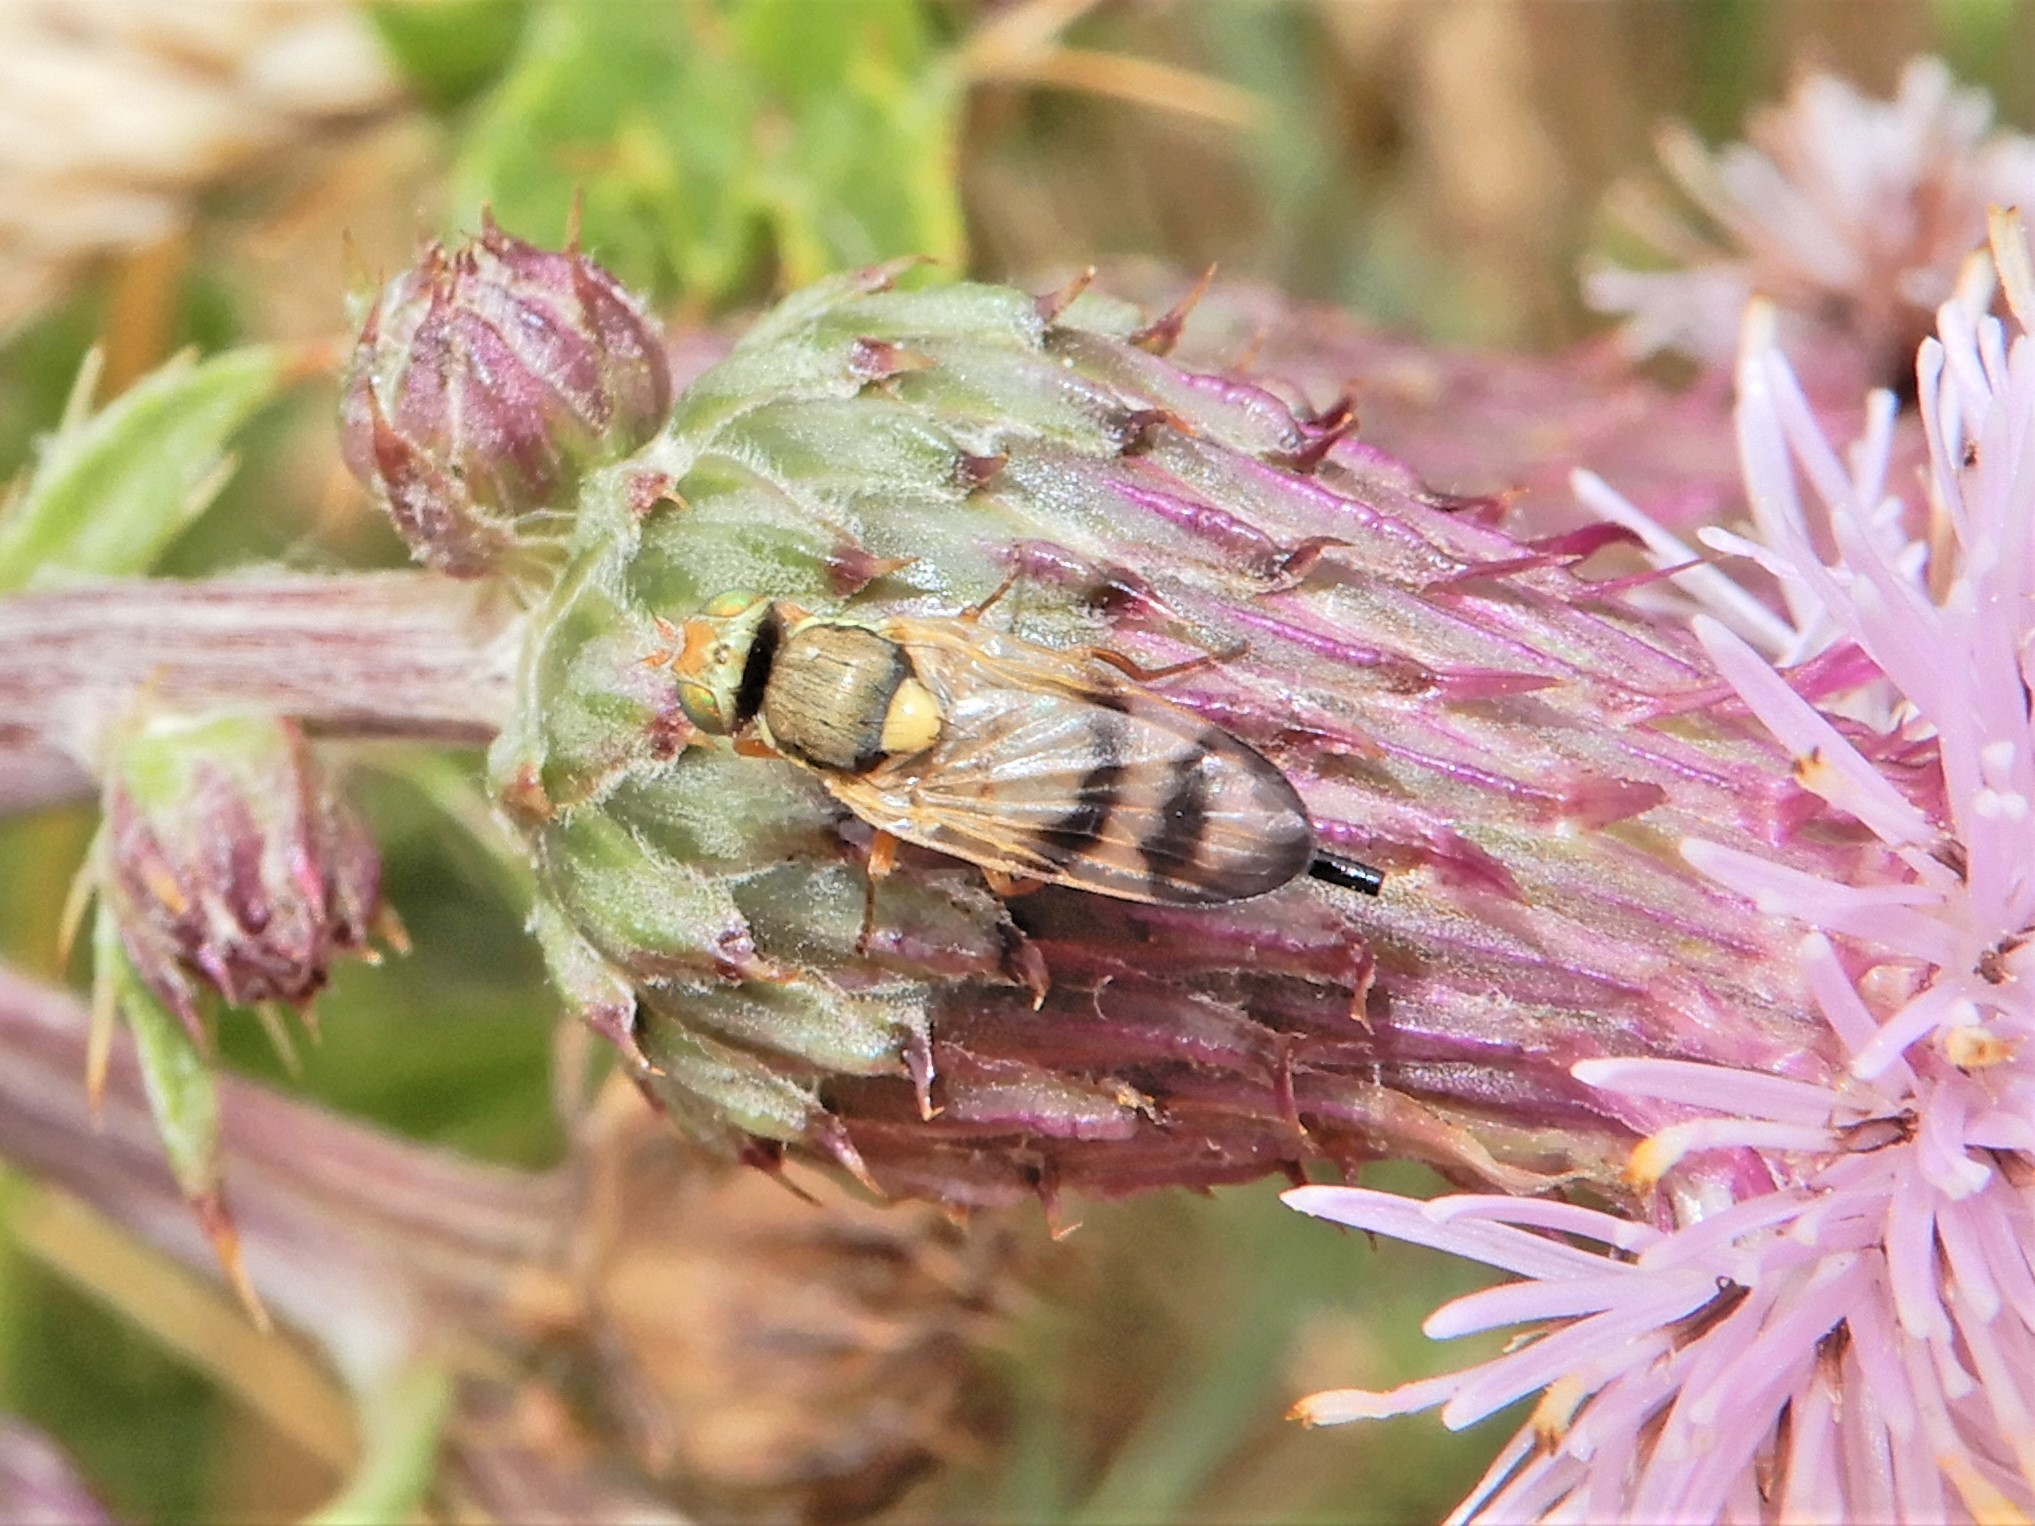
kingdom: Animalia
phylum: Arthropoda
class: Insecta
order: Diptera
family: Tephritidae
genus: Urophora
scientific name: Urophora stylata
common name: Fruit fly
